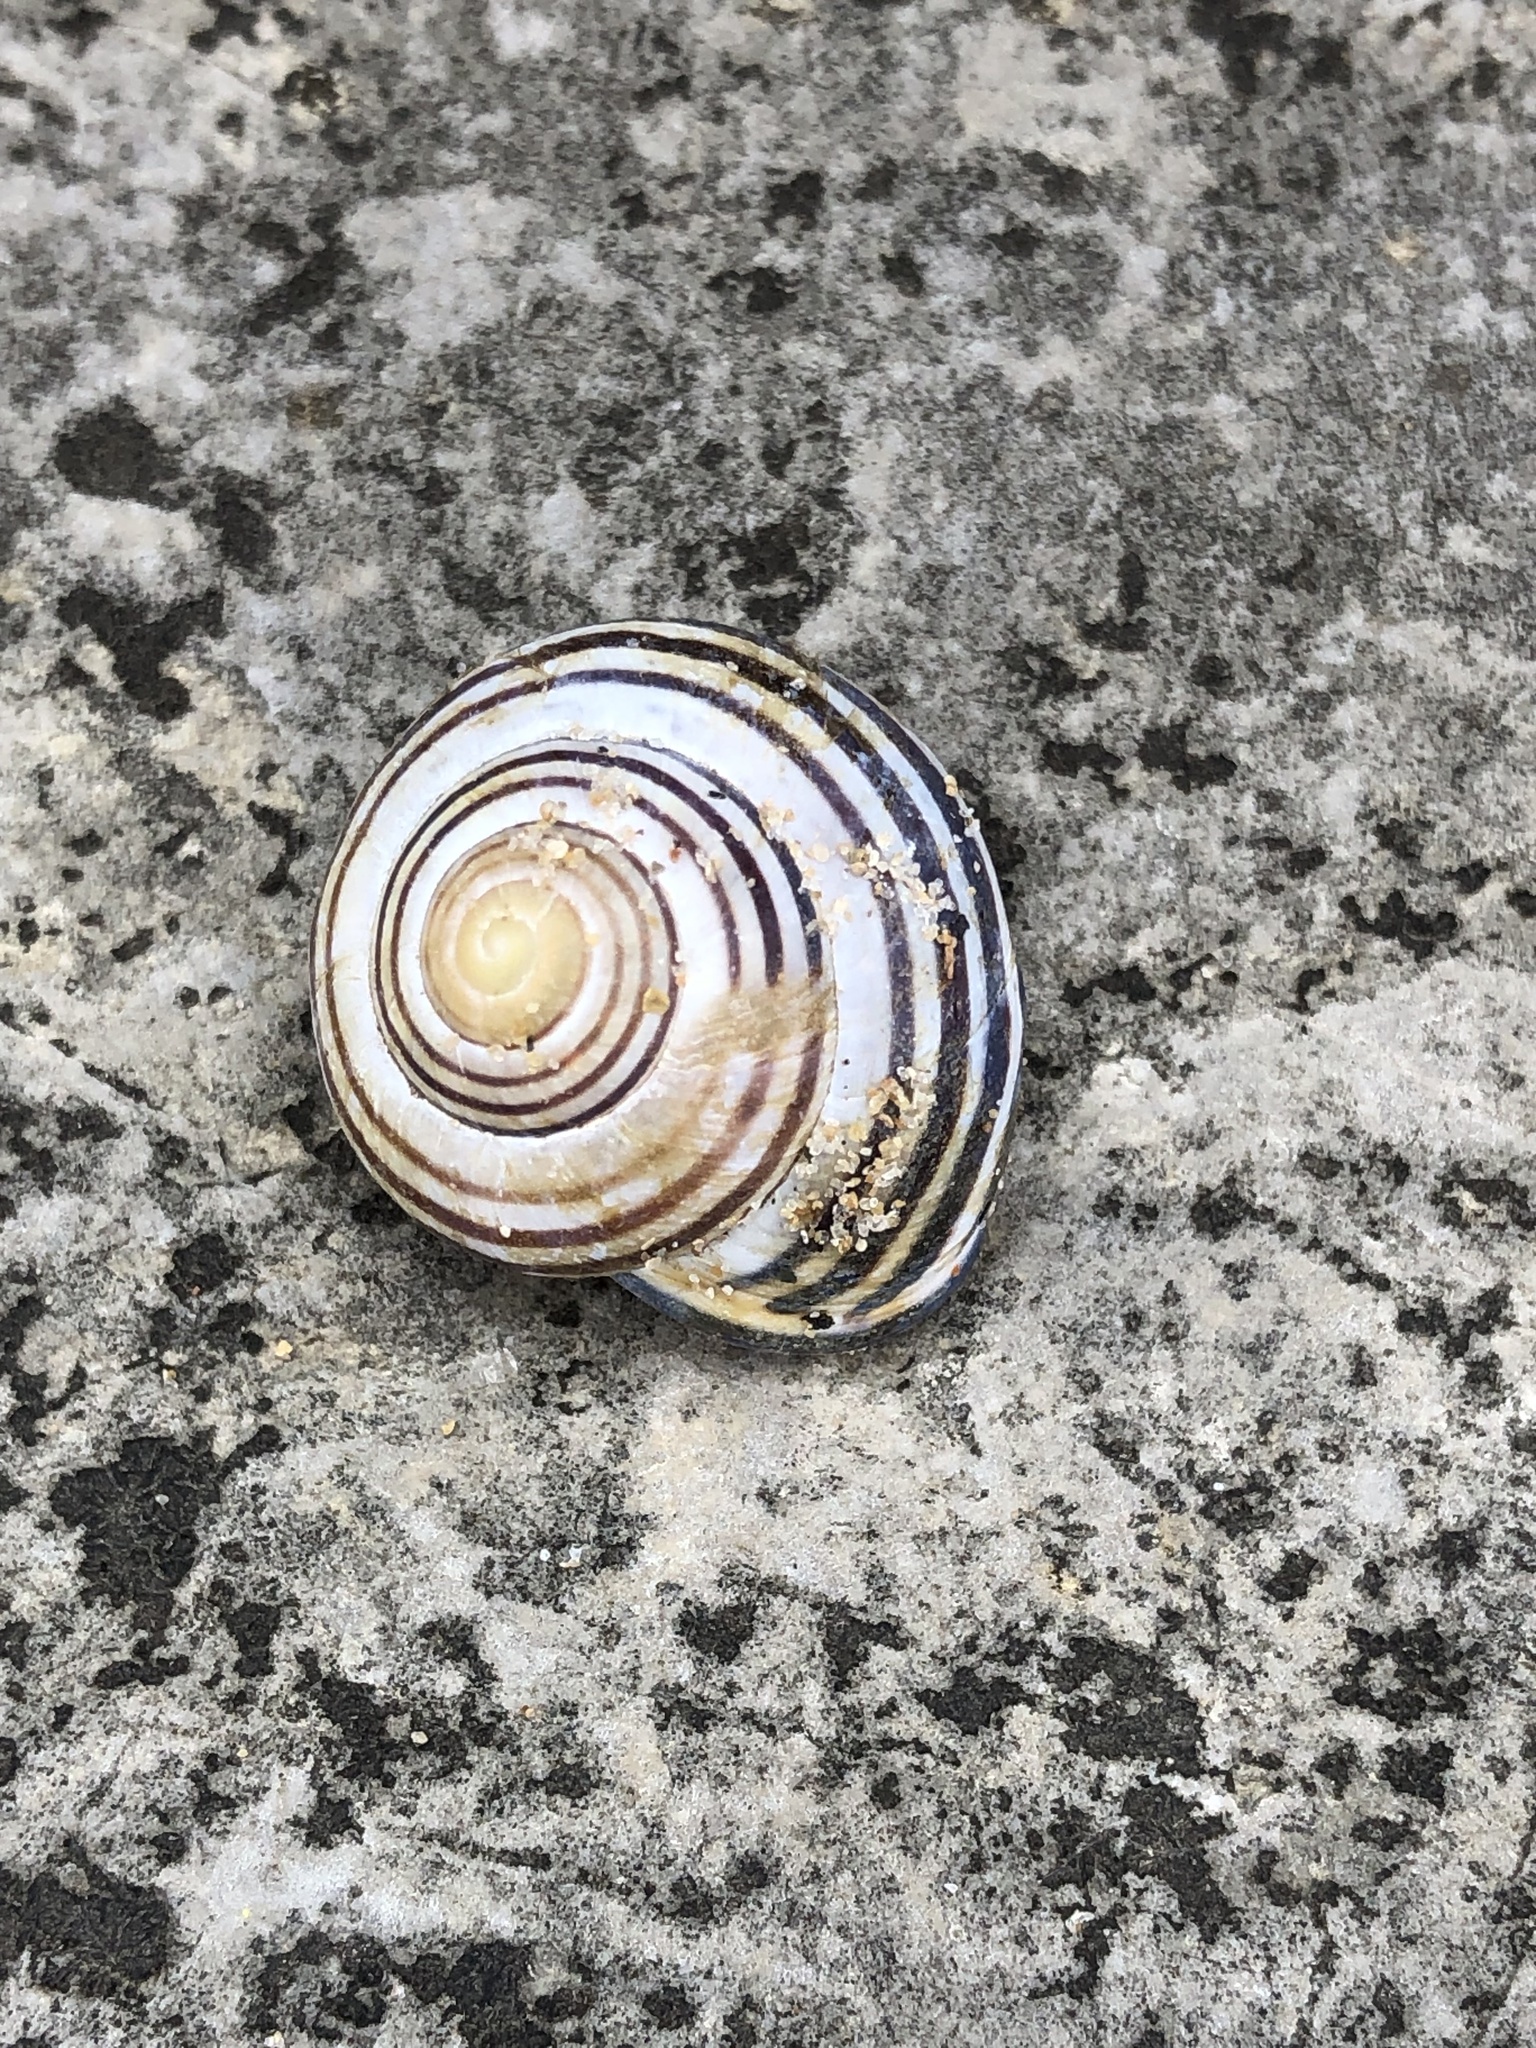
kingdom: Animalia
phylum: Mollusca
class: Gastropoda
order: Stylommatophora
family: Helicidae
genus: Cepaea
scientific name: Cepaea nemoralis
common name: Grovesnail
